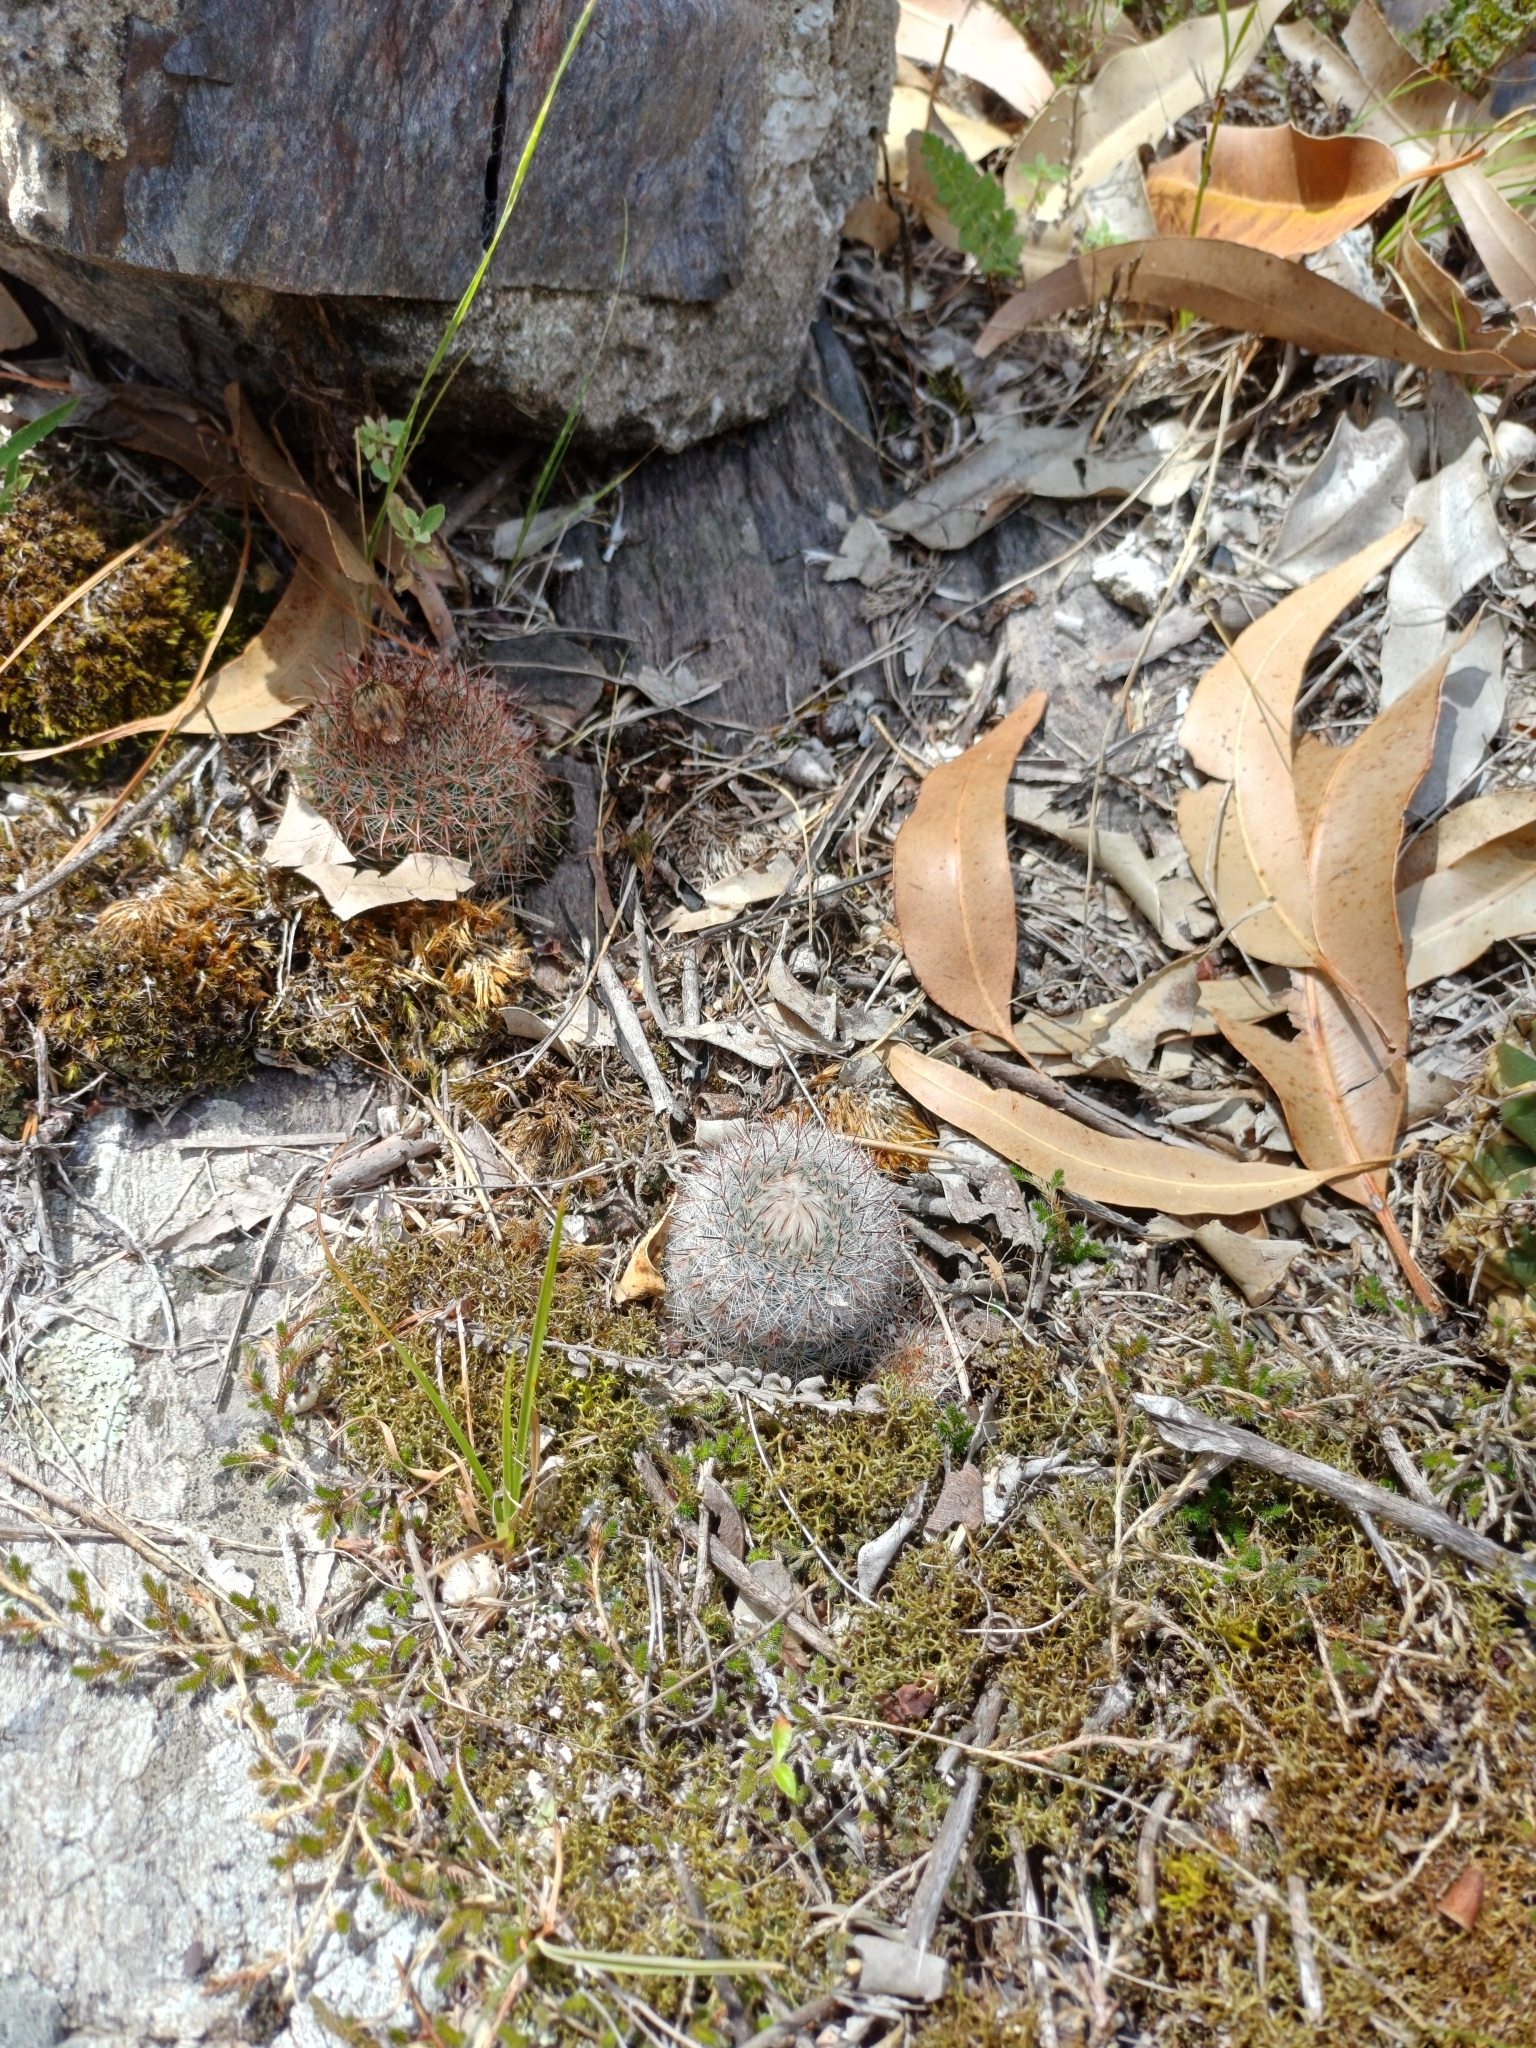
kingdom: Plantae
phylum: Tracheophyta
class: Magnoliopsida
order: Caryophyllales
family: Cactaceae
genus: Parodia
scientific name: Parodia scopa
